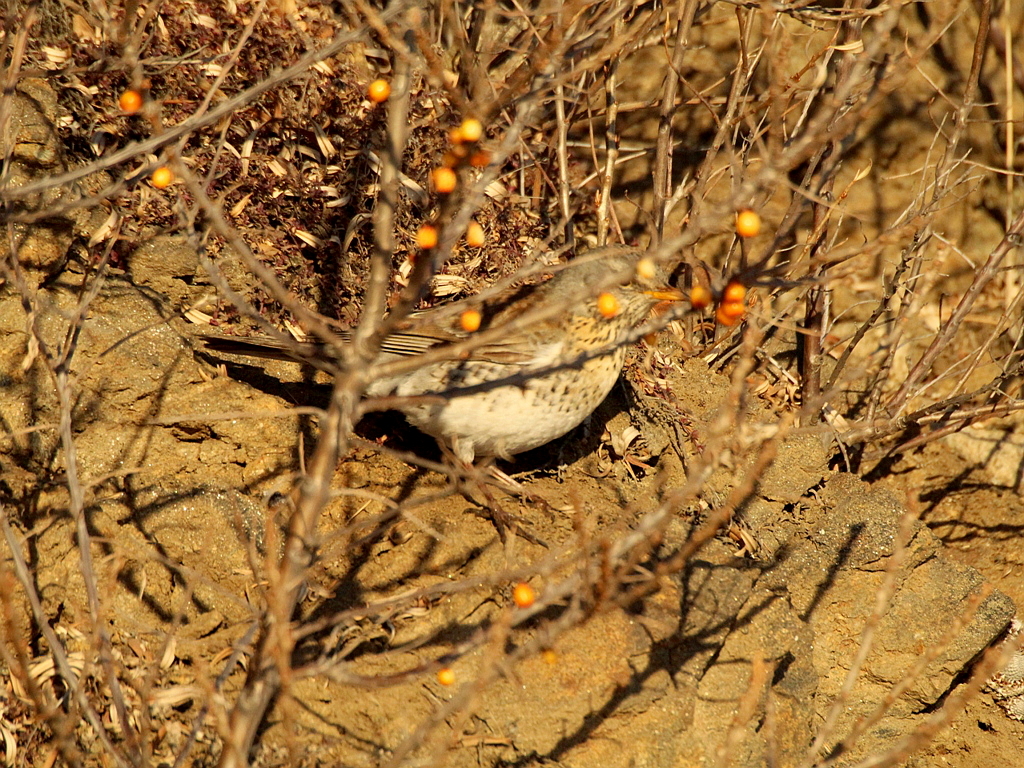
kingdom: Animalia
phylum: Chordata
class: Aves
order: Passeriformes
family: Turdidae
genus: Turdus
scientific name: Turdus pilaris
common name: Fieldfare
